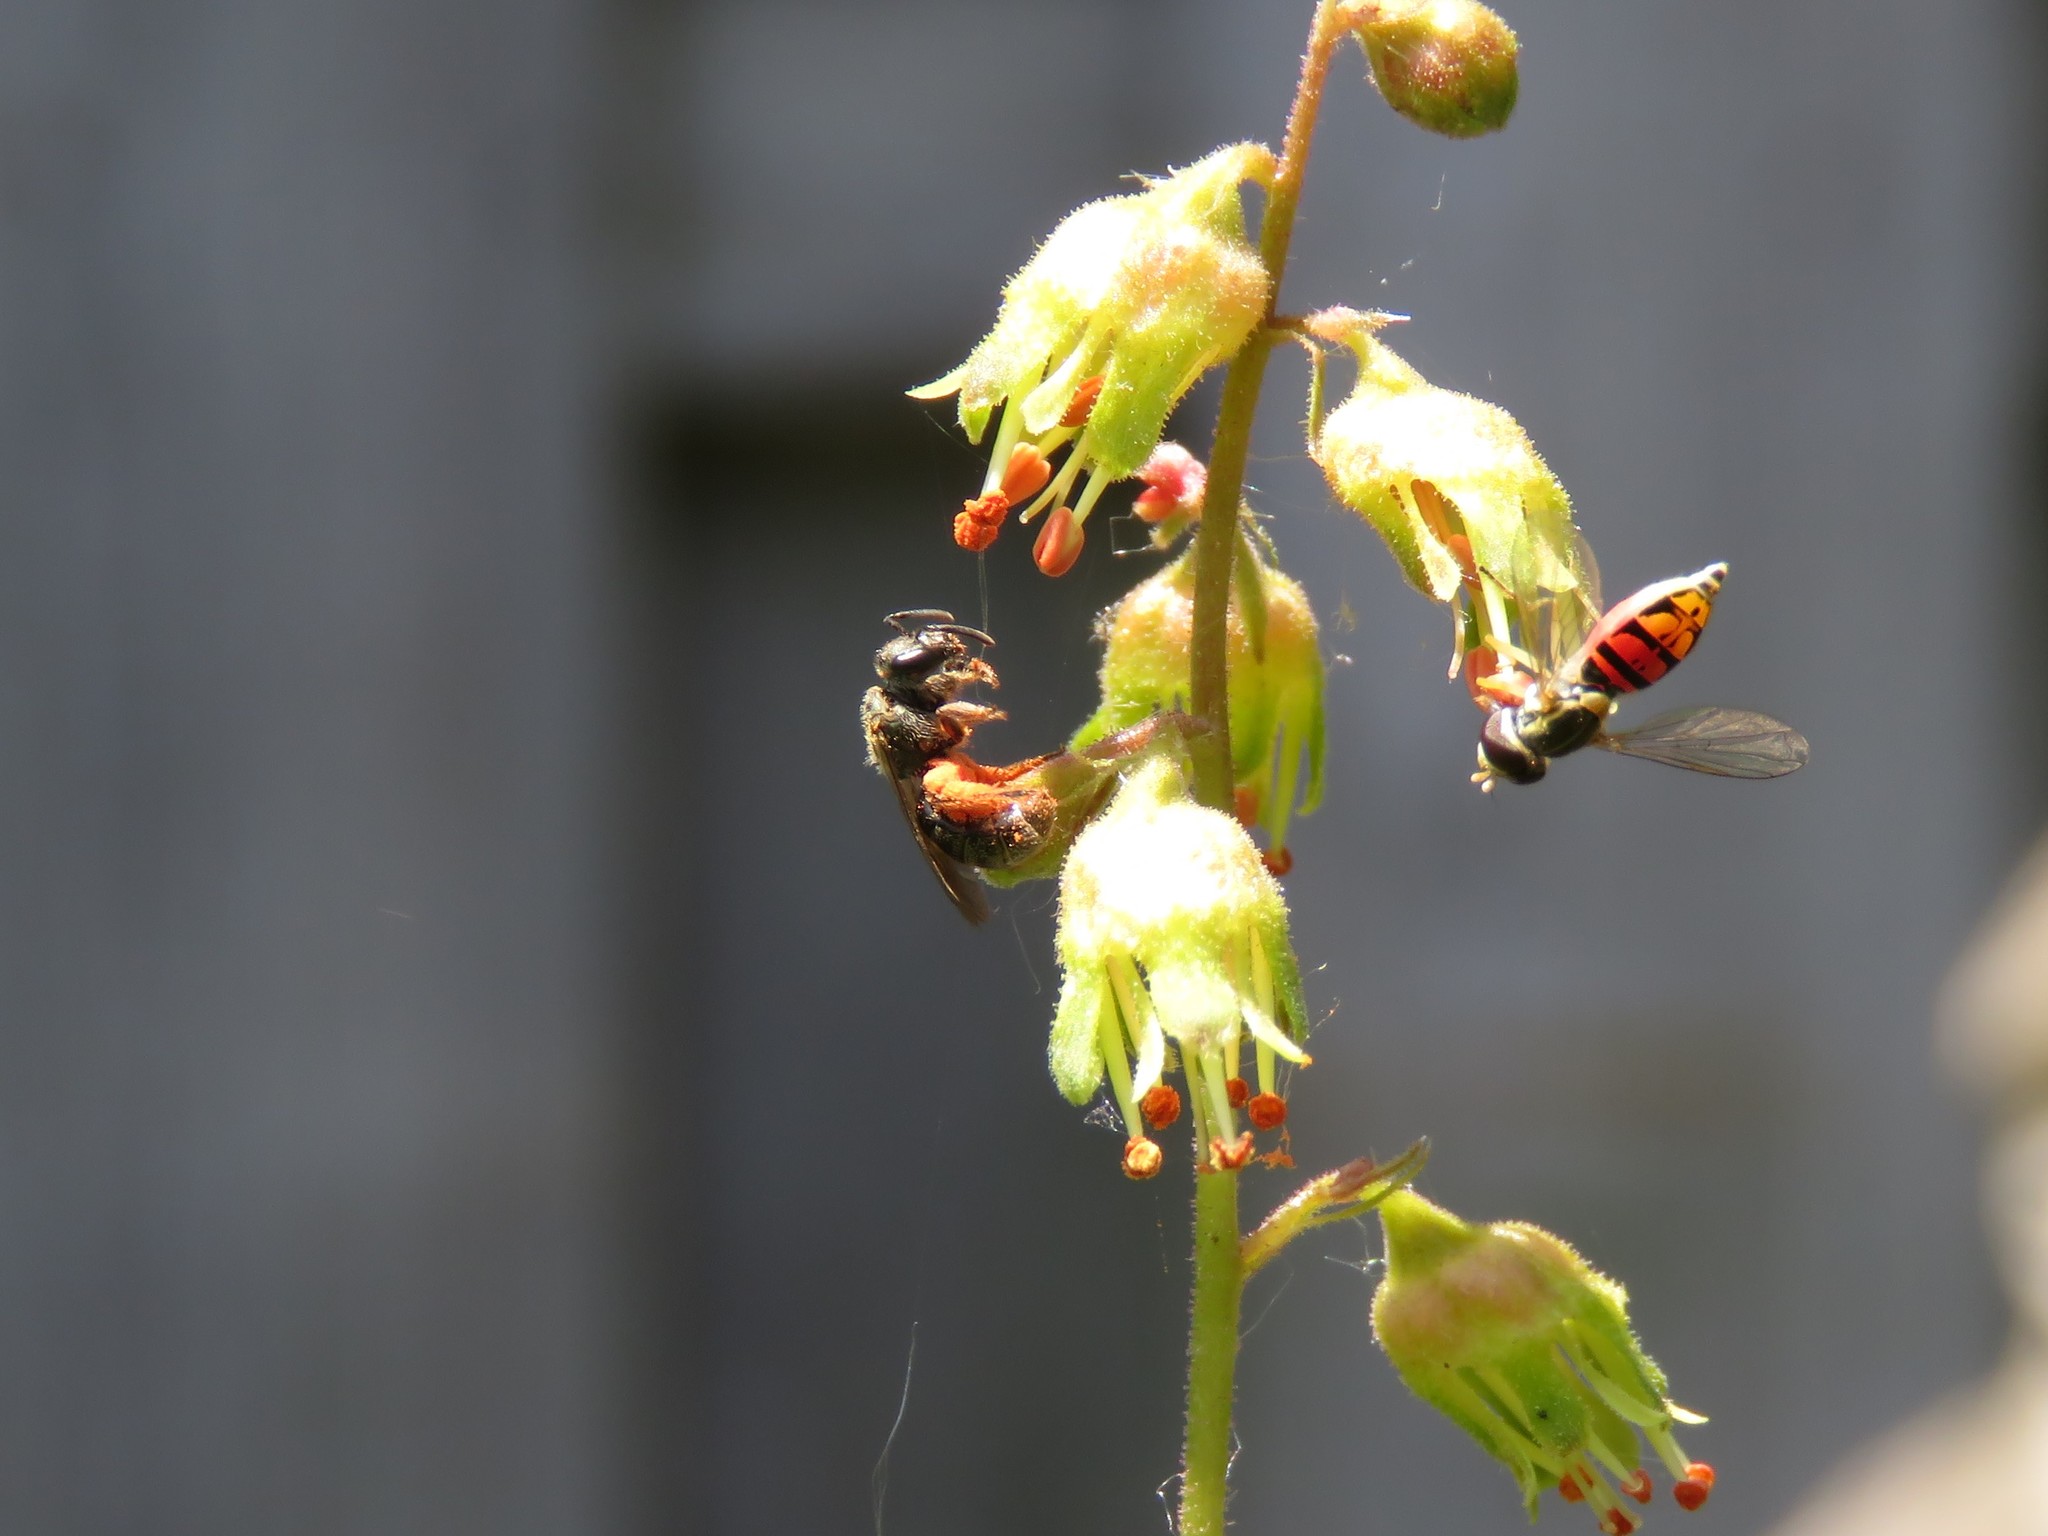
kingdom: Animalia
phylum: Arthropoda
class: Insecta
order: Diptera
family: Syrphidae
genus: Toxomerus
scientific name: Toxomerus marginatus
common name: Syrphid fly
